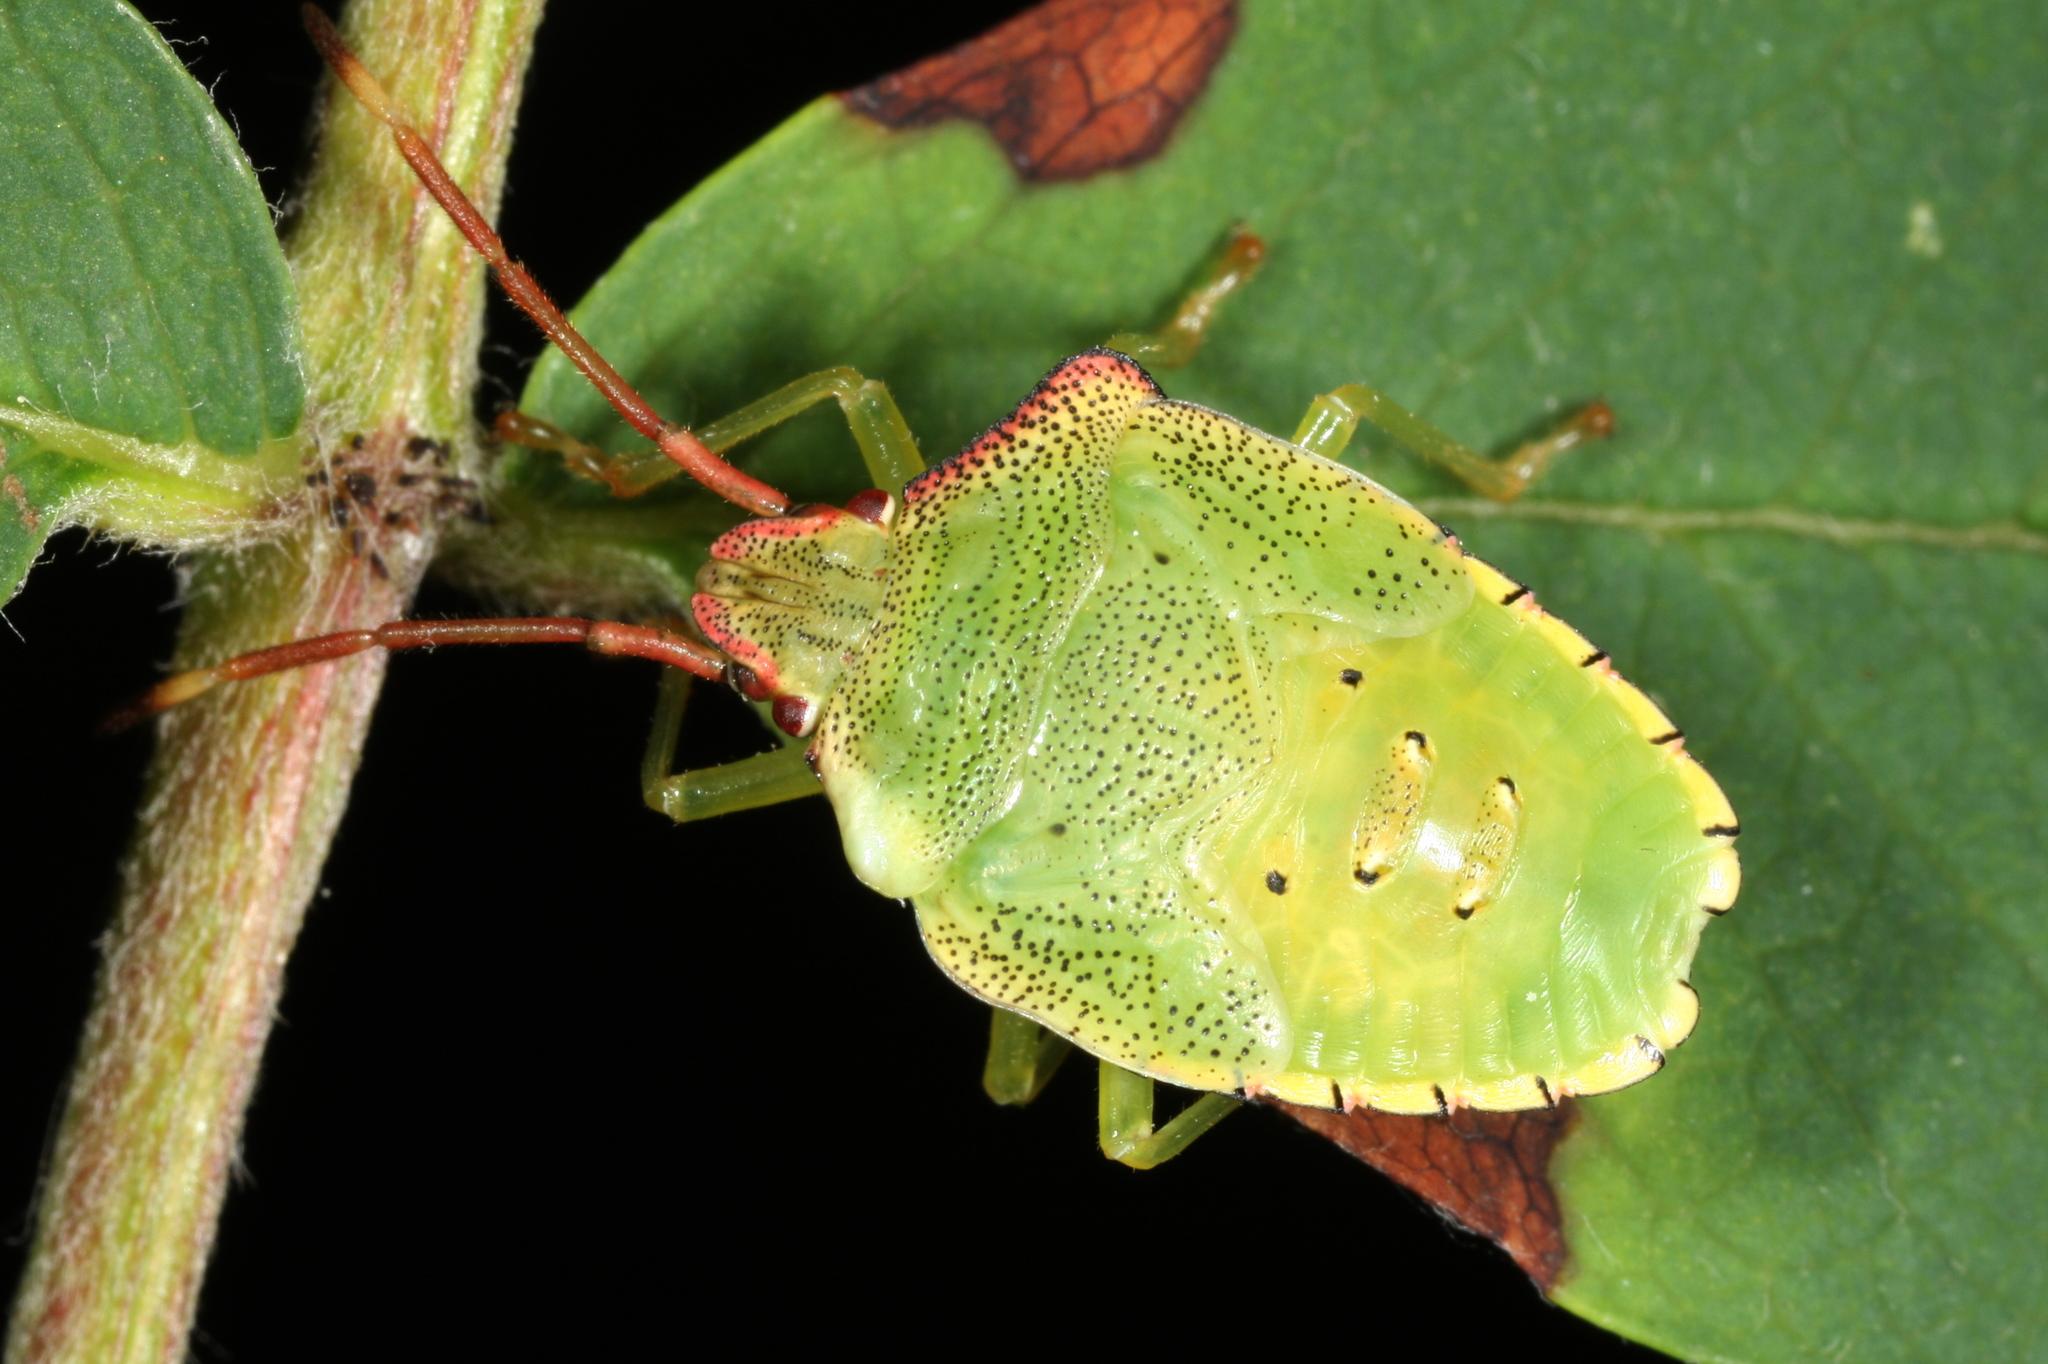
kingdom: Animalia
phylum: Arthropoda
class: Insecta
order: Hemiptera
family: Acanthosomatidae
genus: Acanthosoma
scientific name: Acanthosoma haemorrhoidale
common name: Hawthorn shieldbug
